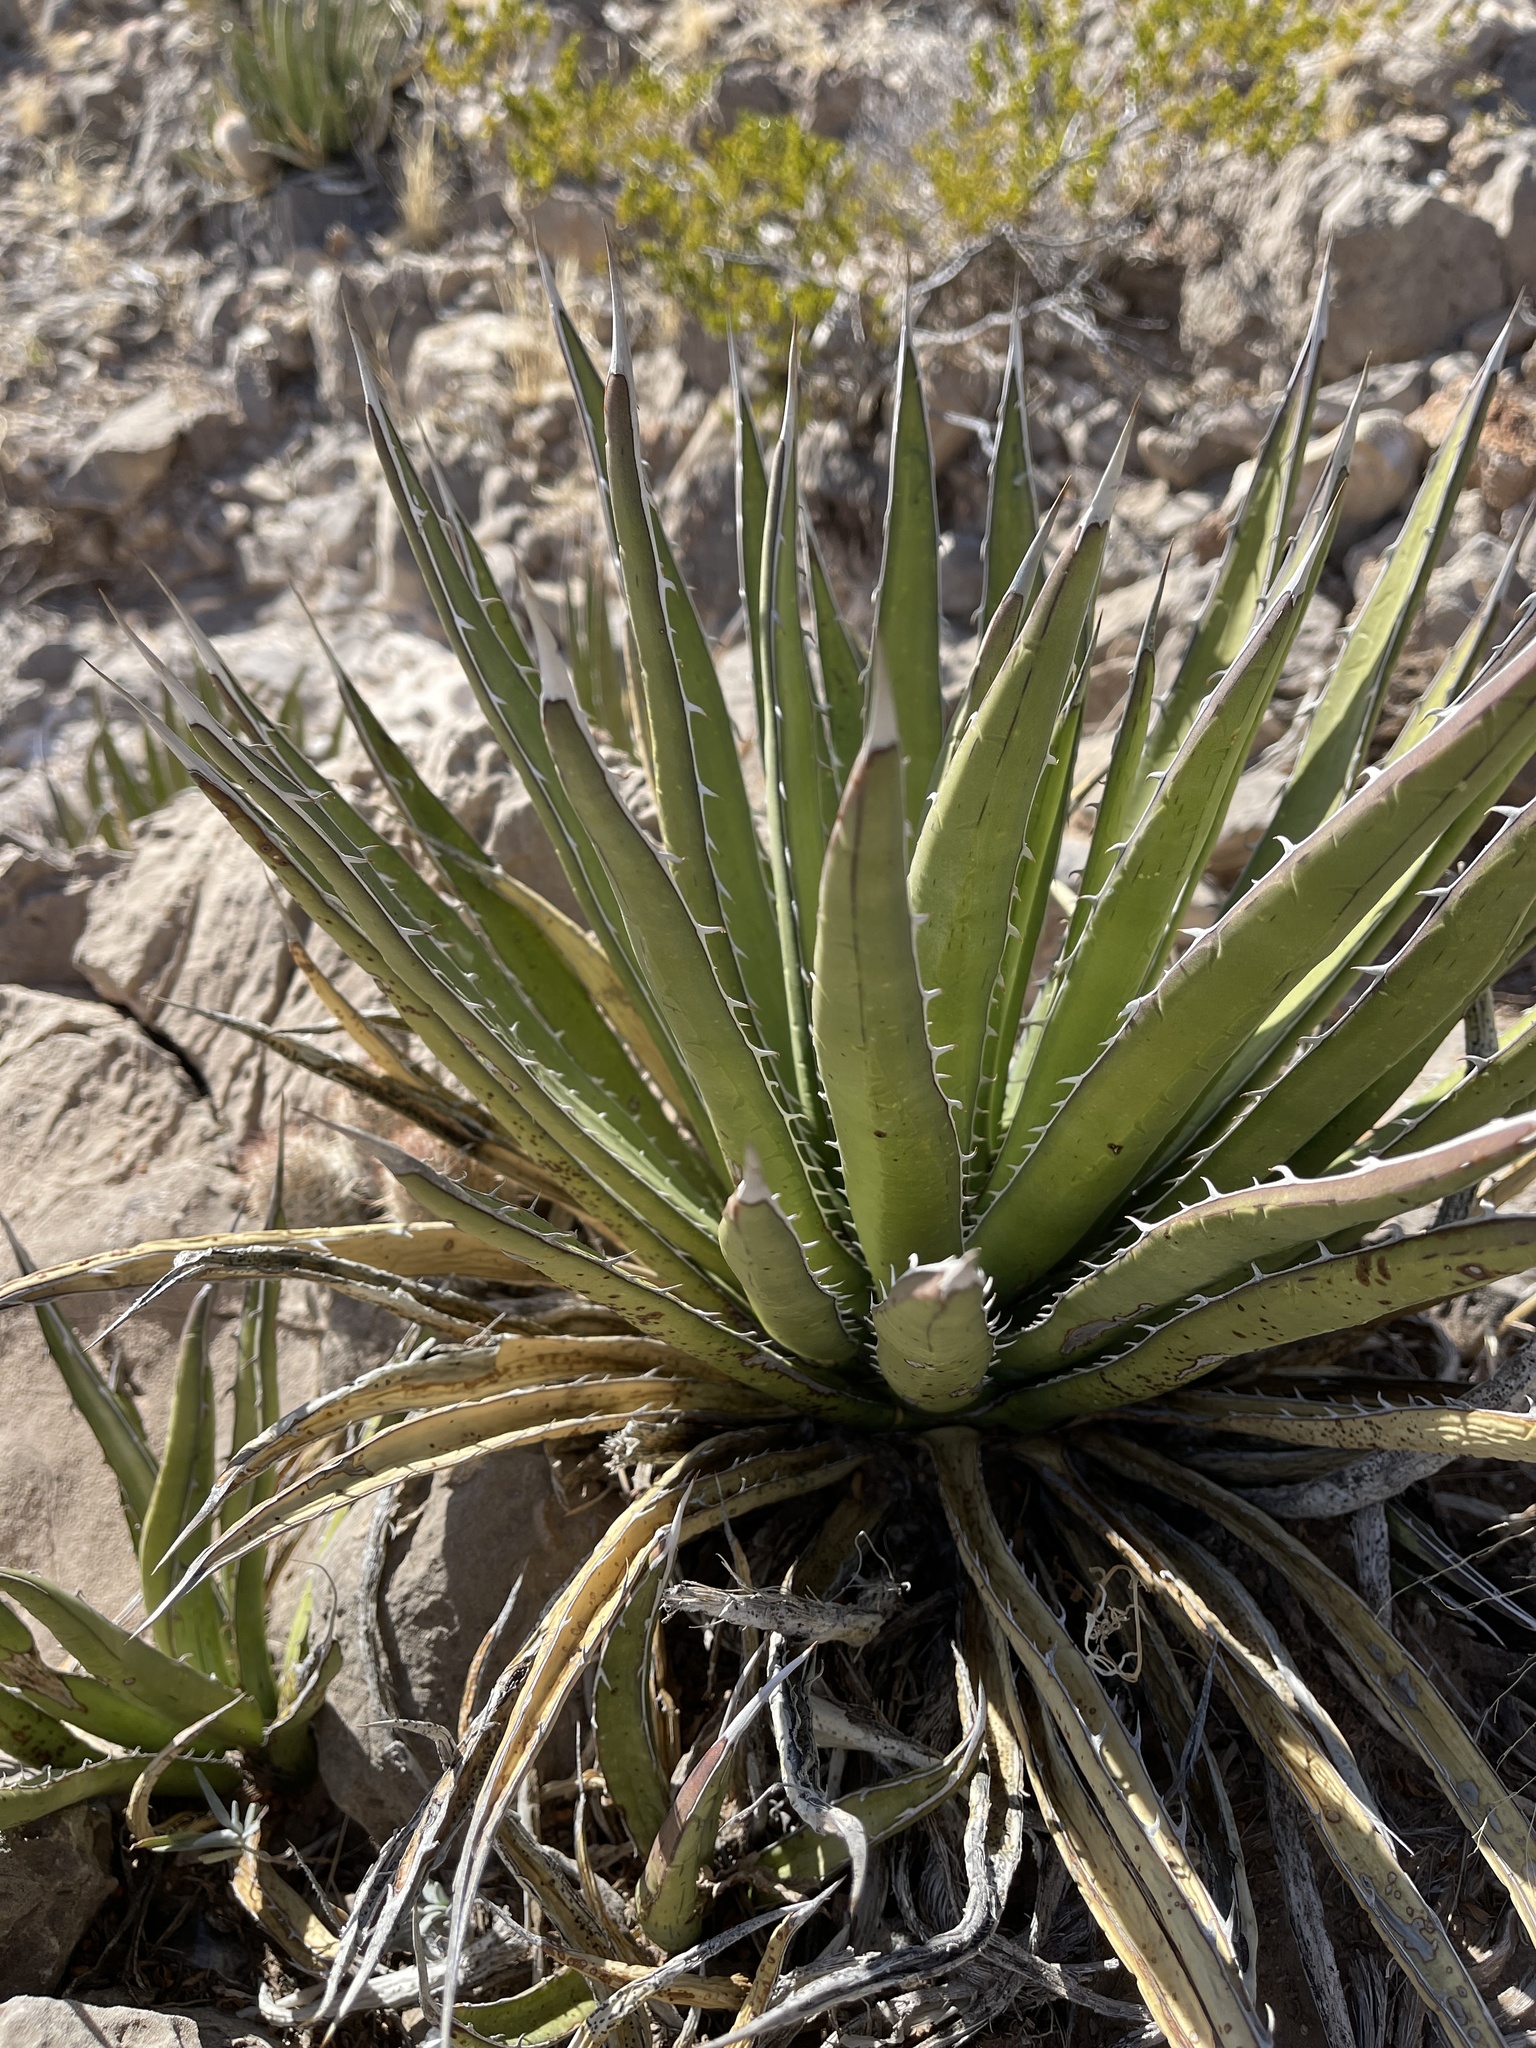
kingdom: Plantae
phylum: Tracheophyta
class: Liliopsida
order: Asparagales
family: Asparagaceae
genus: Agave
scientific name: Agave lechuguilla
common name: Lecheguilla agave
